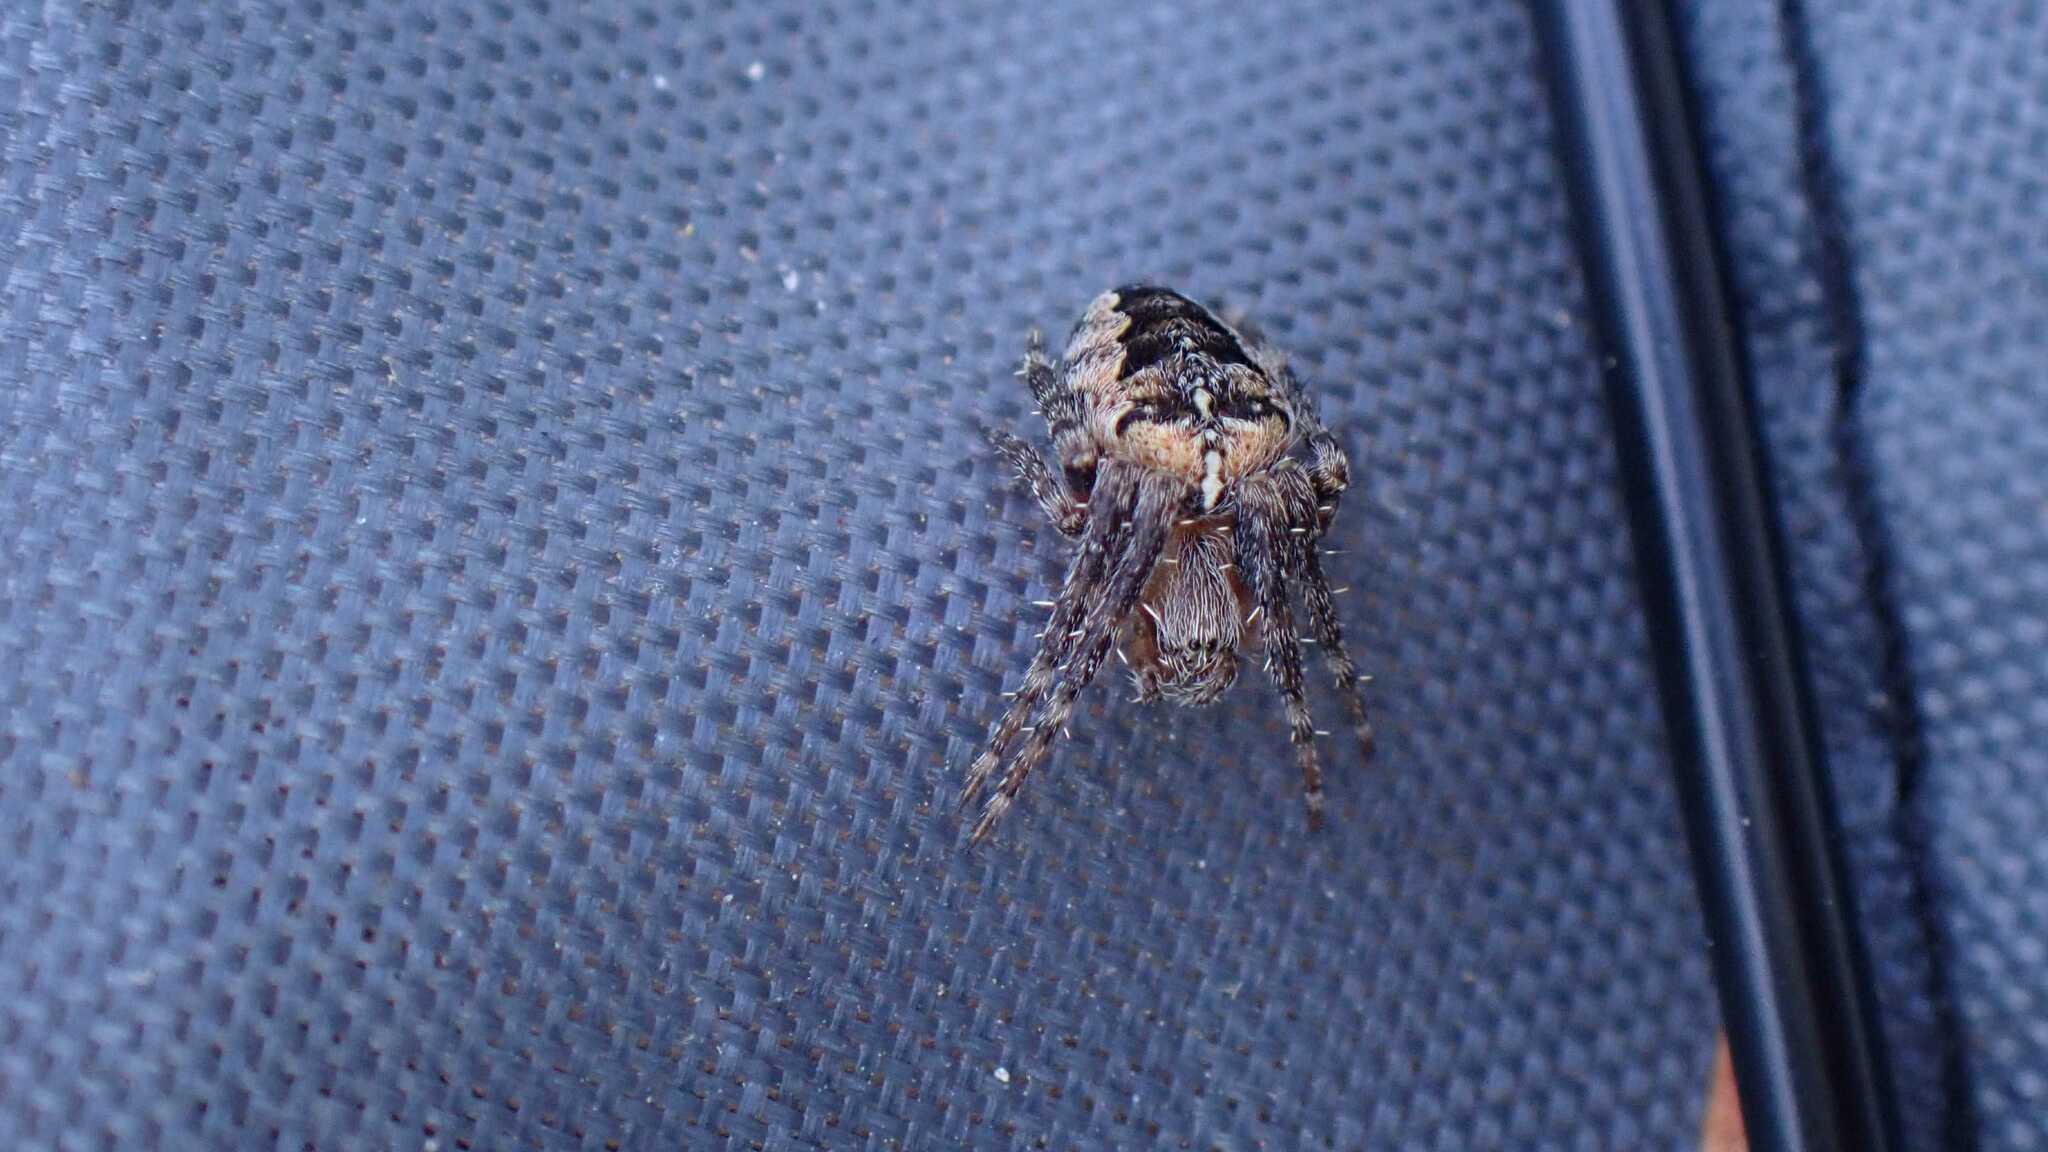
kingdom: Animalia
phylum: Arthropoda
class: Arachnida
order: Araneae
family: Araneidae
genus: Araneus
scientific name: Araneus diadematus
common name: Cross orbweaver
